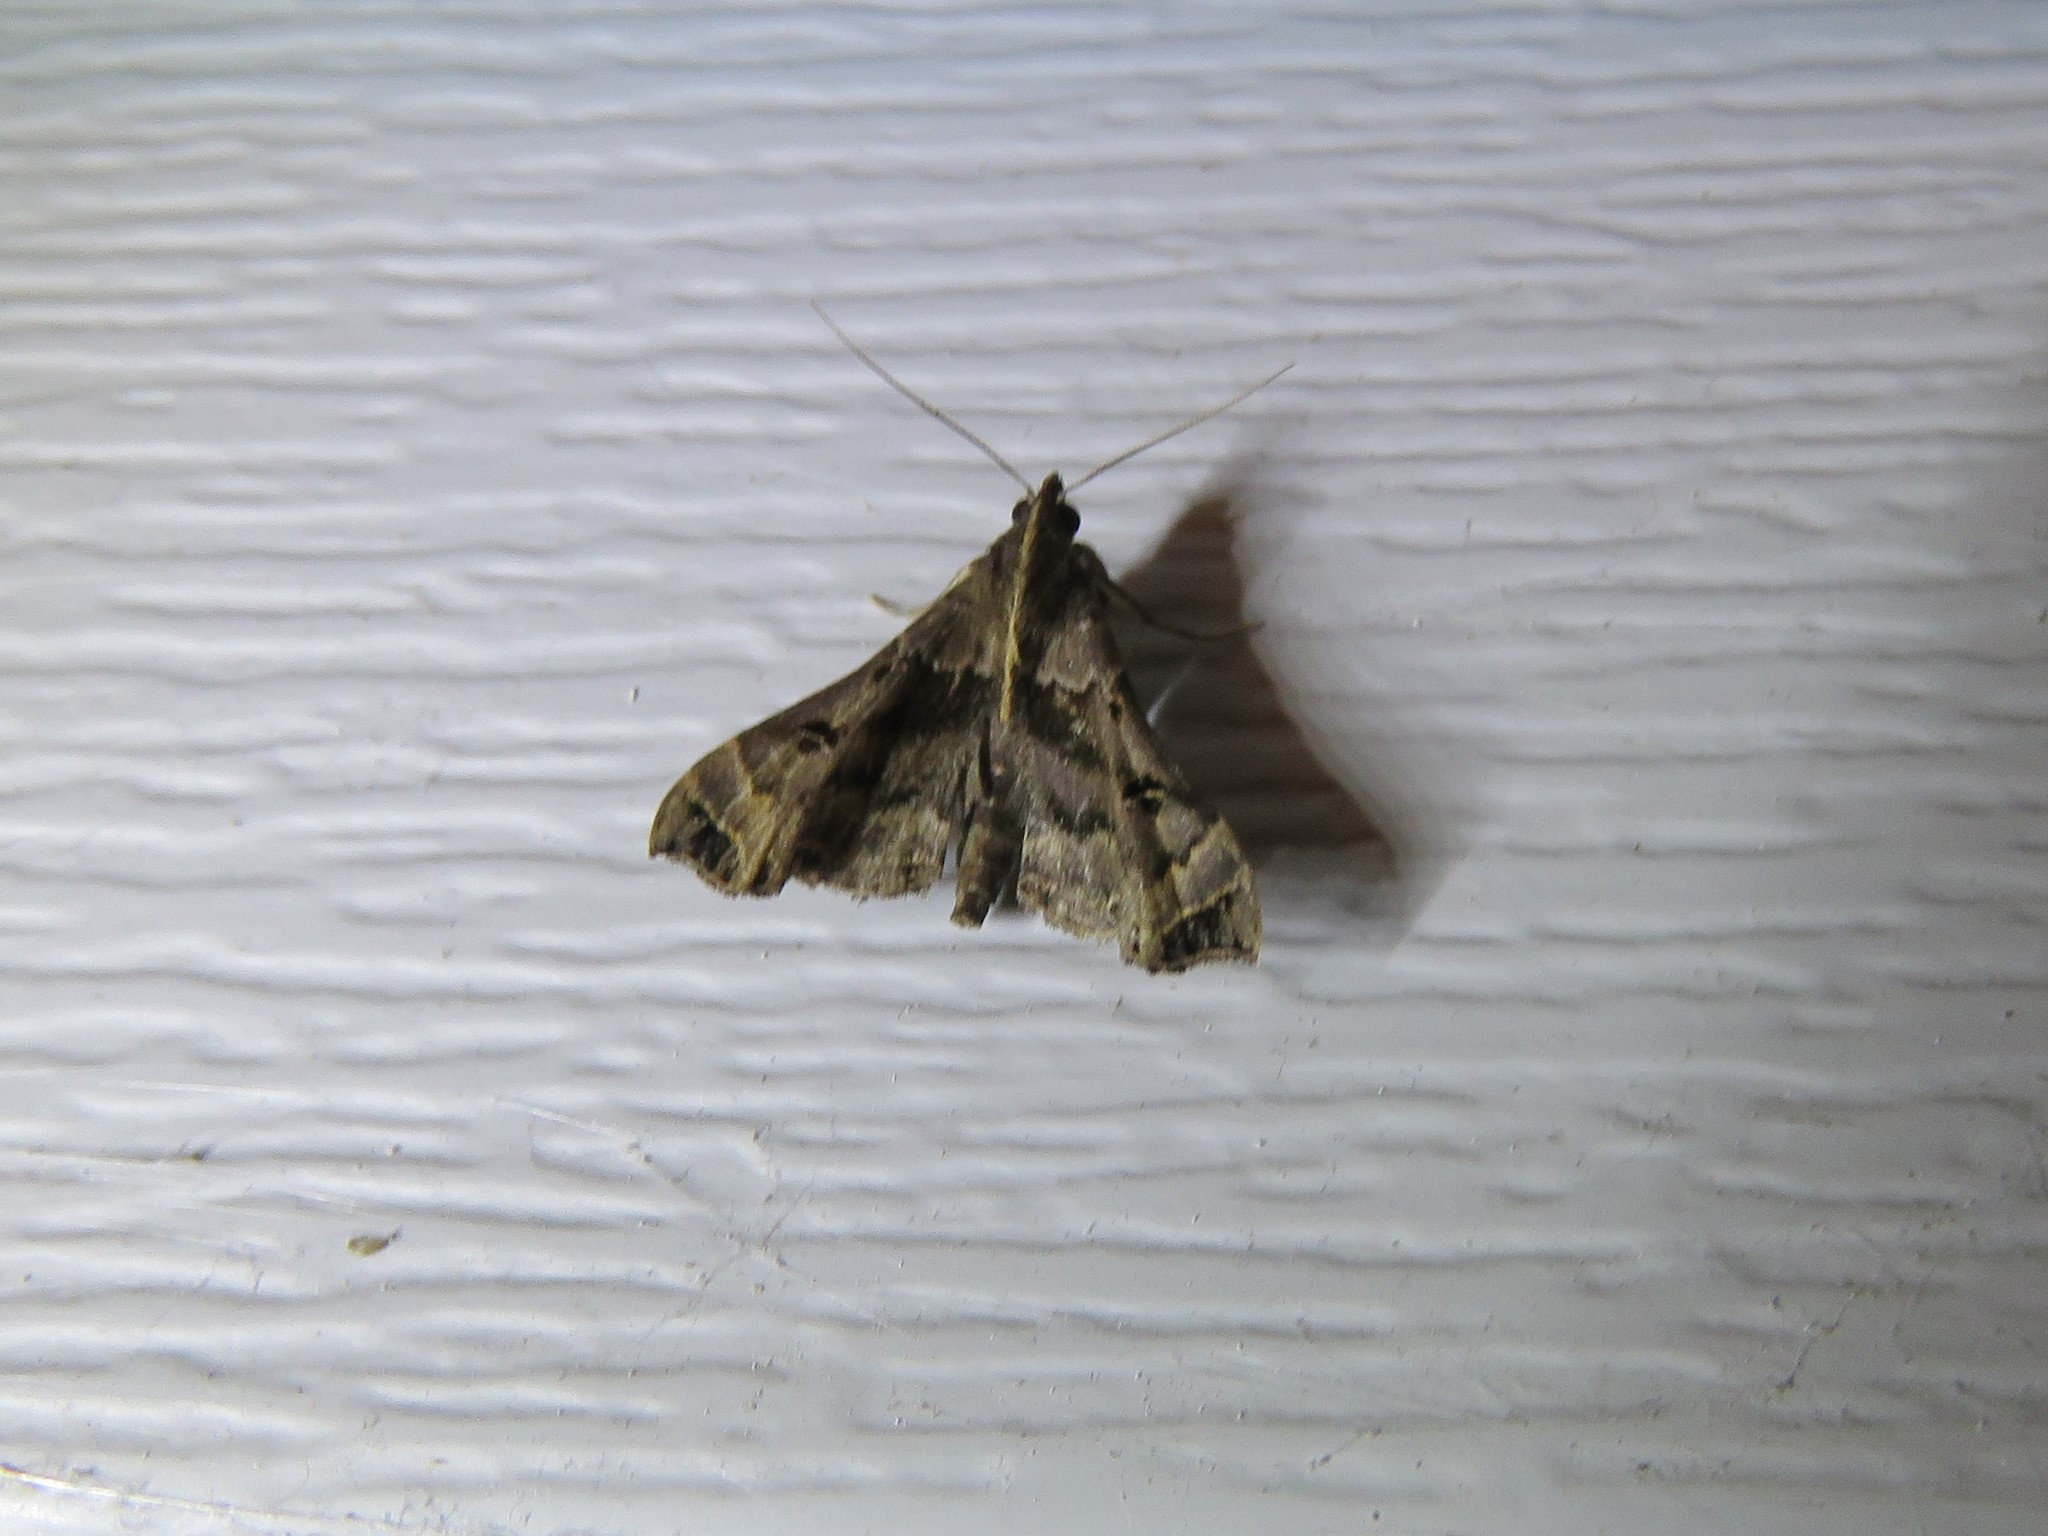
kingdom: Animalia
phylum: Arthropoda
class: Insecta
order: Lepidoptera
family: Erebidae
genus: Palthis
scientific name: Palthis asopialis
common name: Faint-spotted palthis moth
